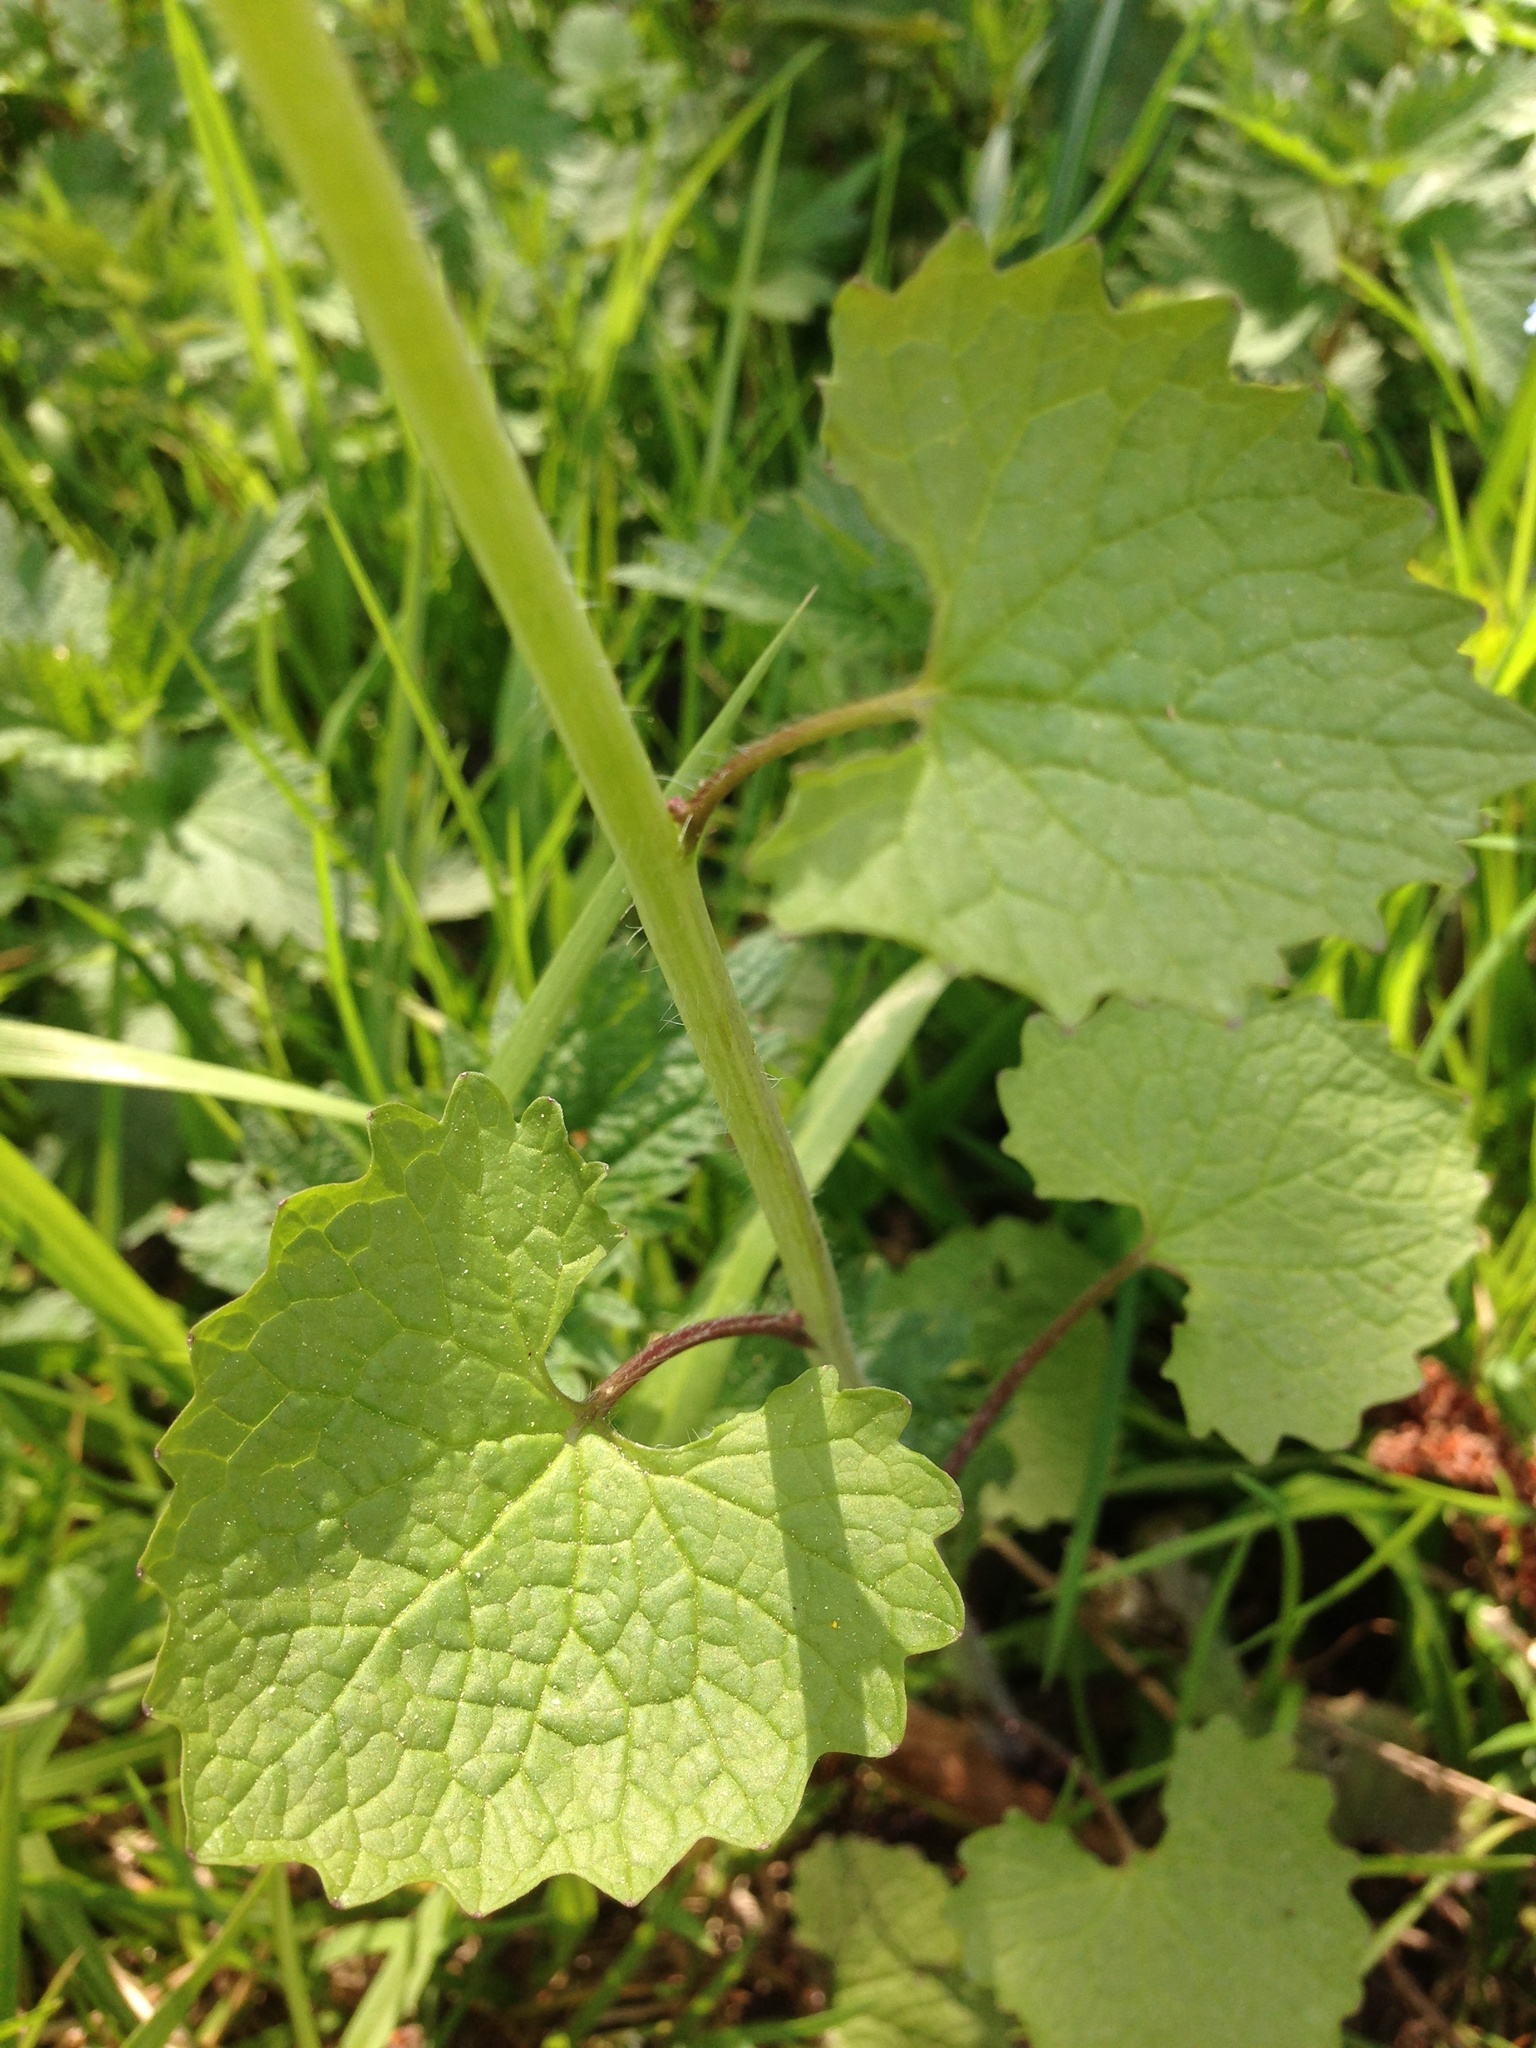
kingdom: Plantae
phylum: Tracheophyta
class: Magnoliopsida
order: Brassicales
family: Brassicaceae
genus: Alliaria
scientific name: Alliaria petiolata
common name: Garlic mustard
